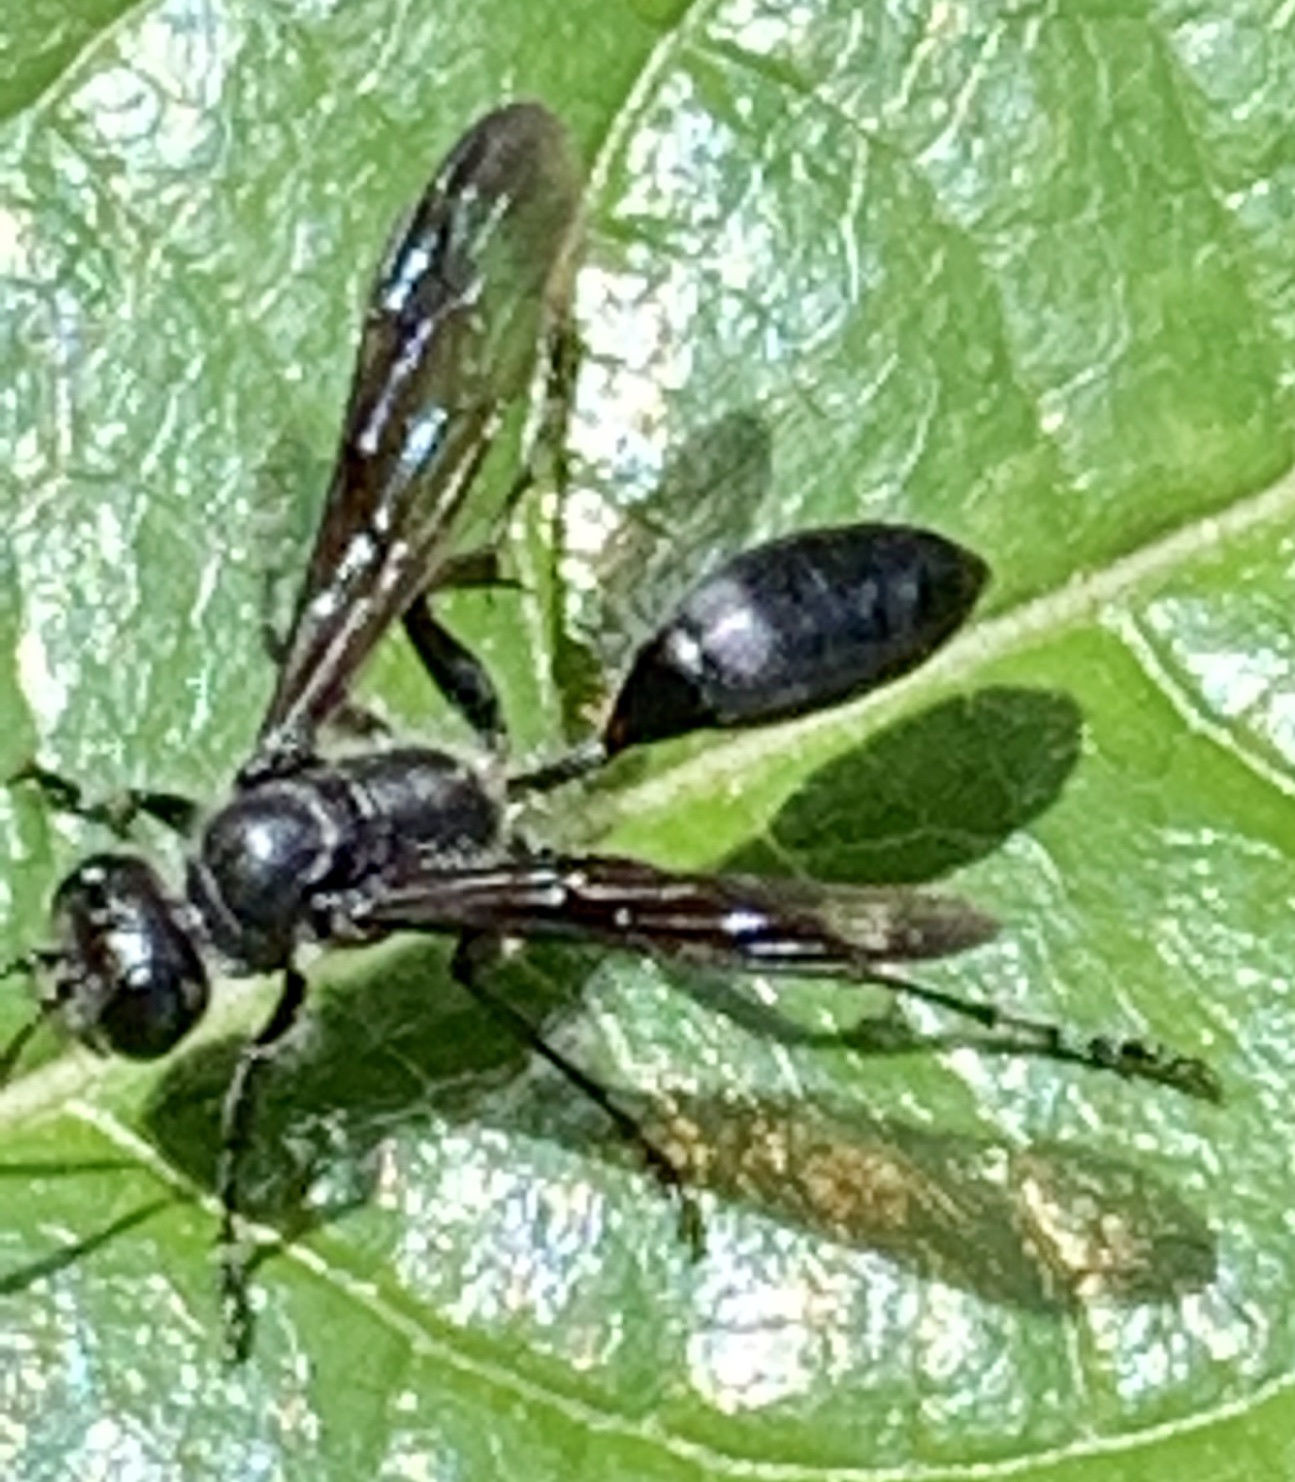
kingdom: Animalia
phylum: Arthropoda
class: Insecta
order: Hymenoptera
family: Sphecidae
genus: Isodontia
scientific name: Isodontia mexicana
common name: Mud dauber
